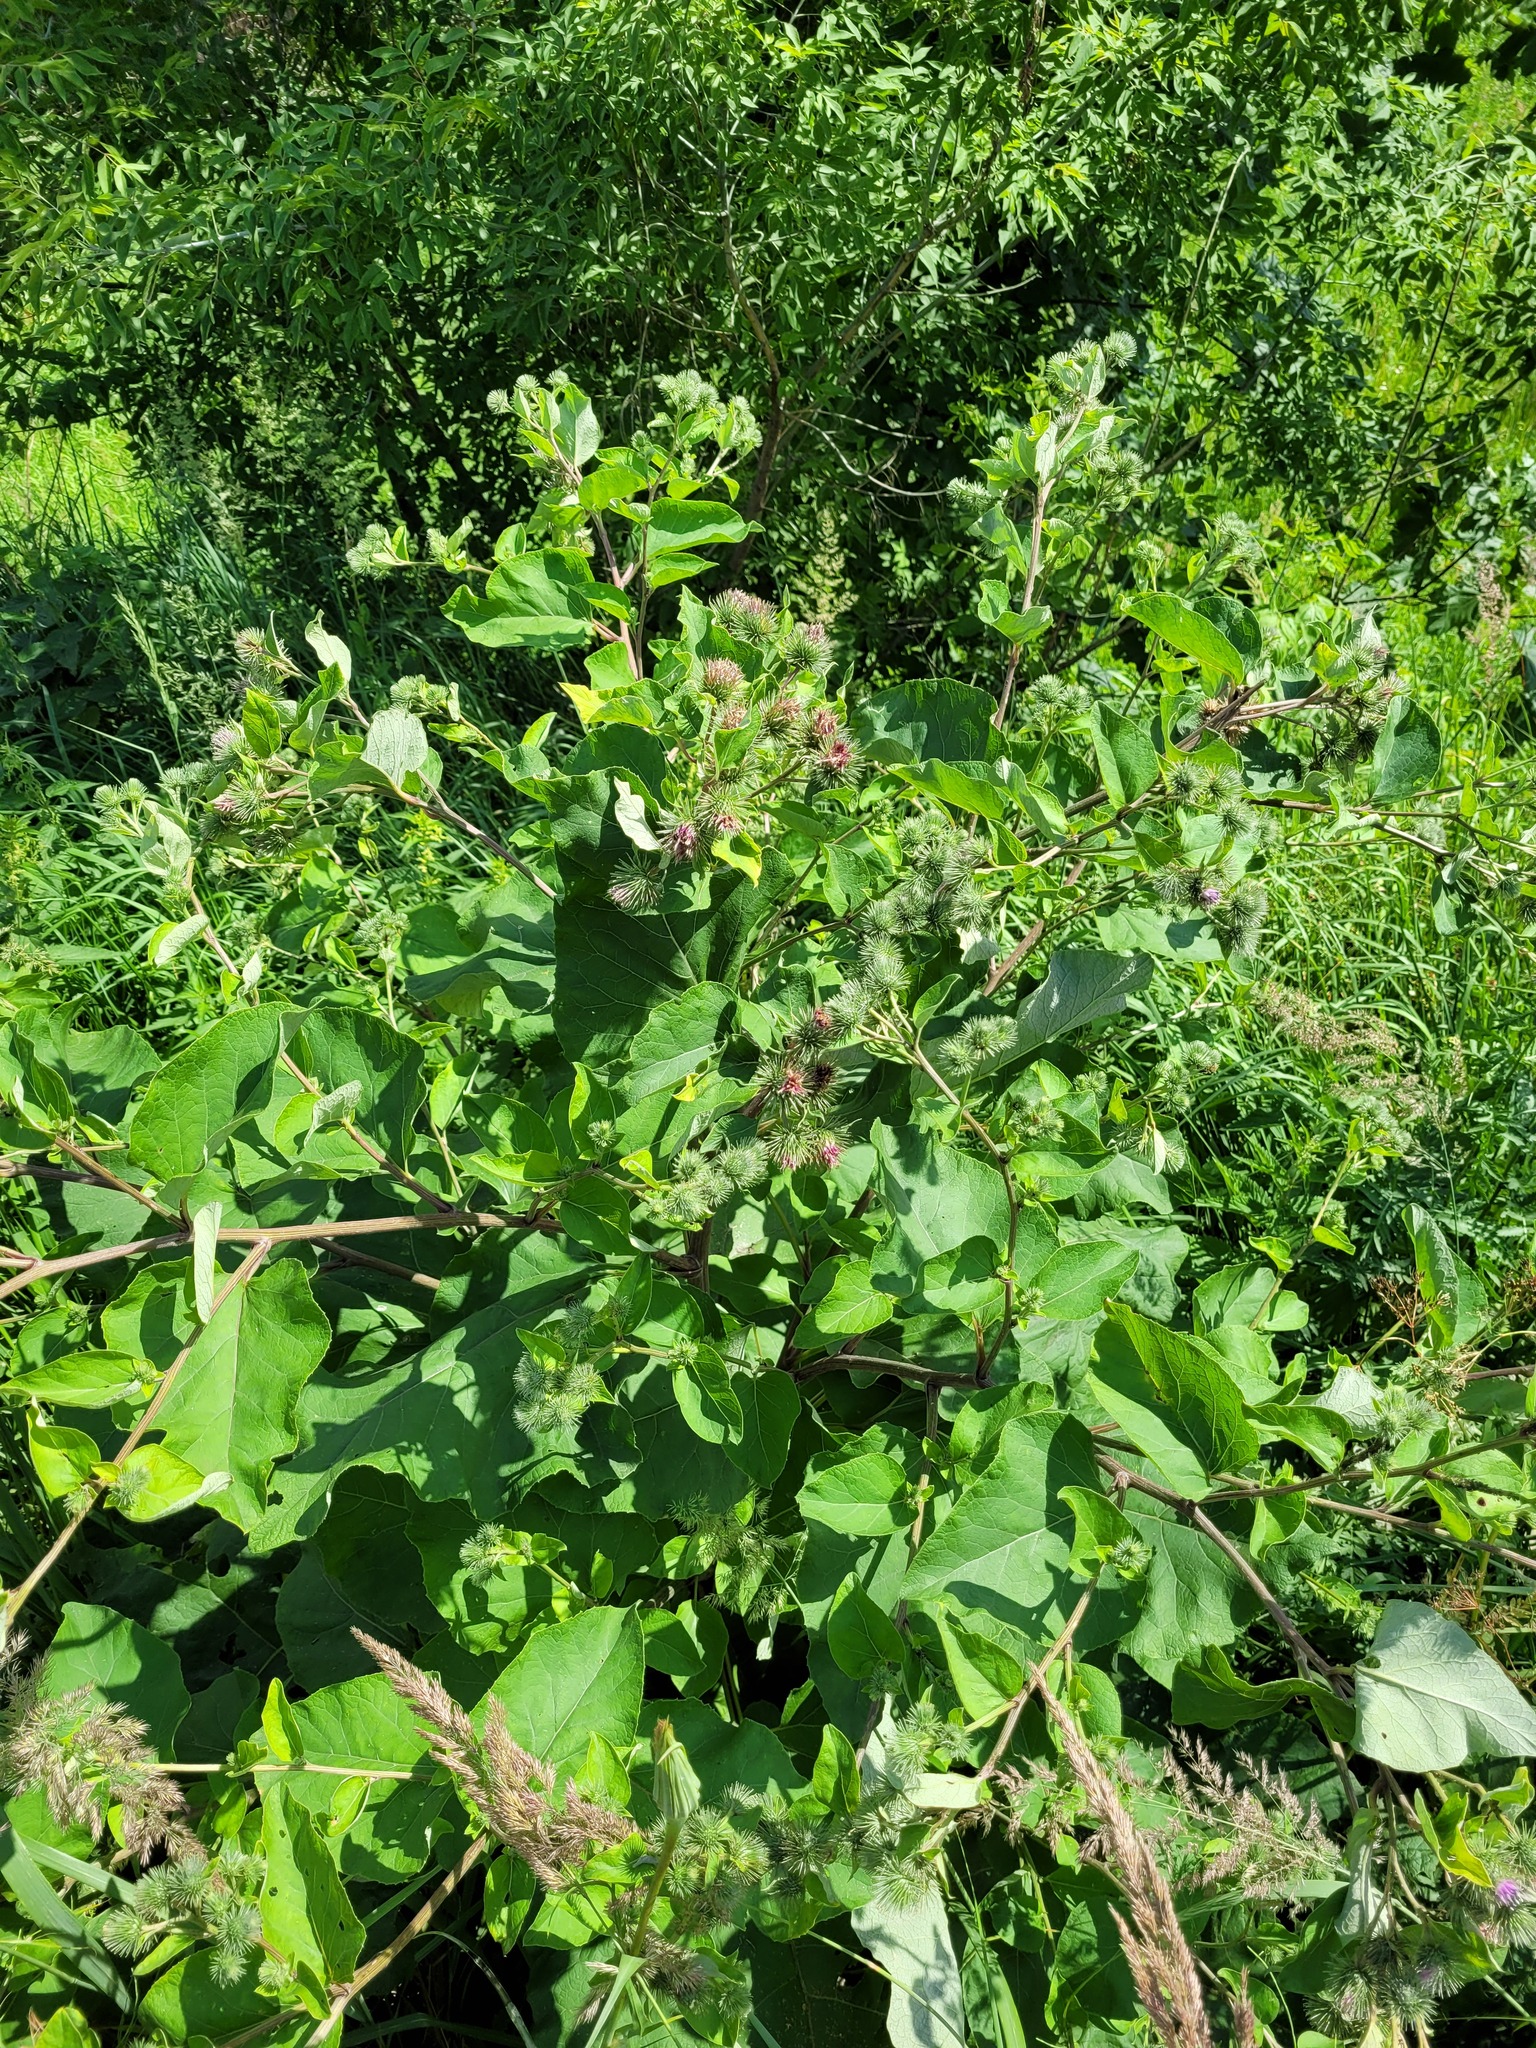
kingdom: Plantae
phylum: Tracheophyta
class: Magnoliopsida
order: Asterales
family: Asteraceae
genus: Arctium
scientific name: Arctium mixtum
